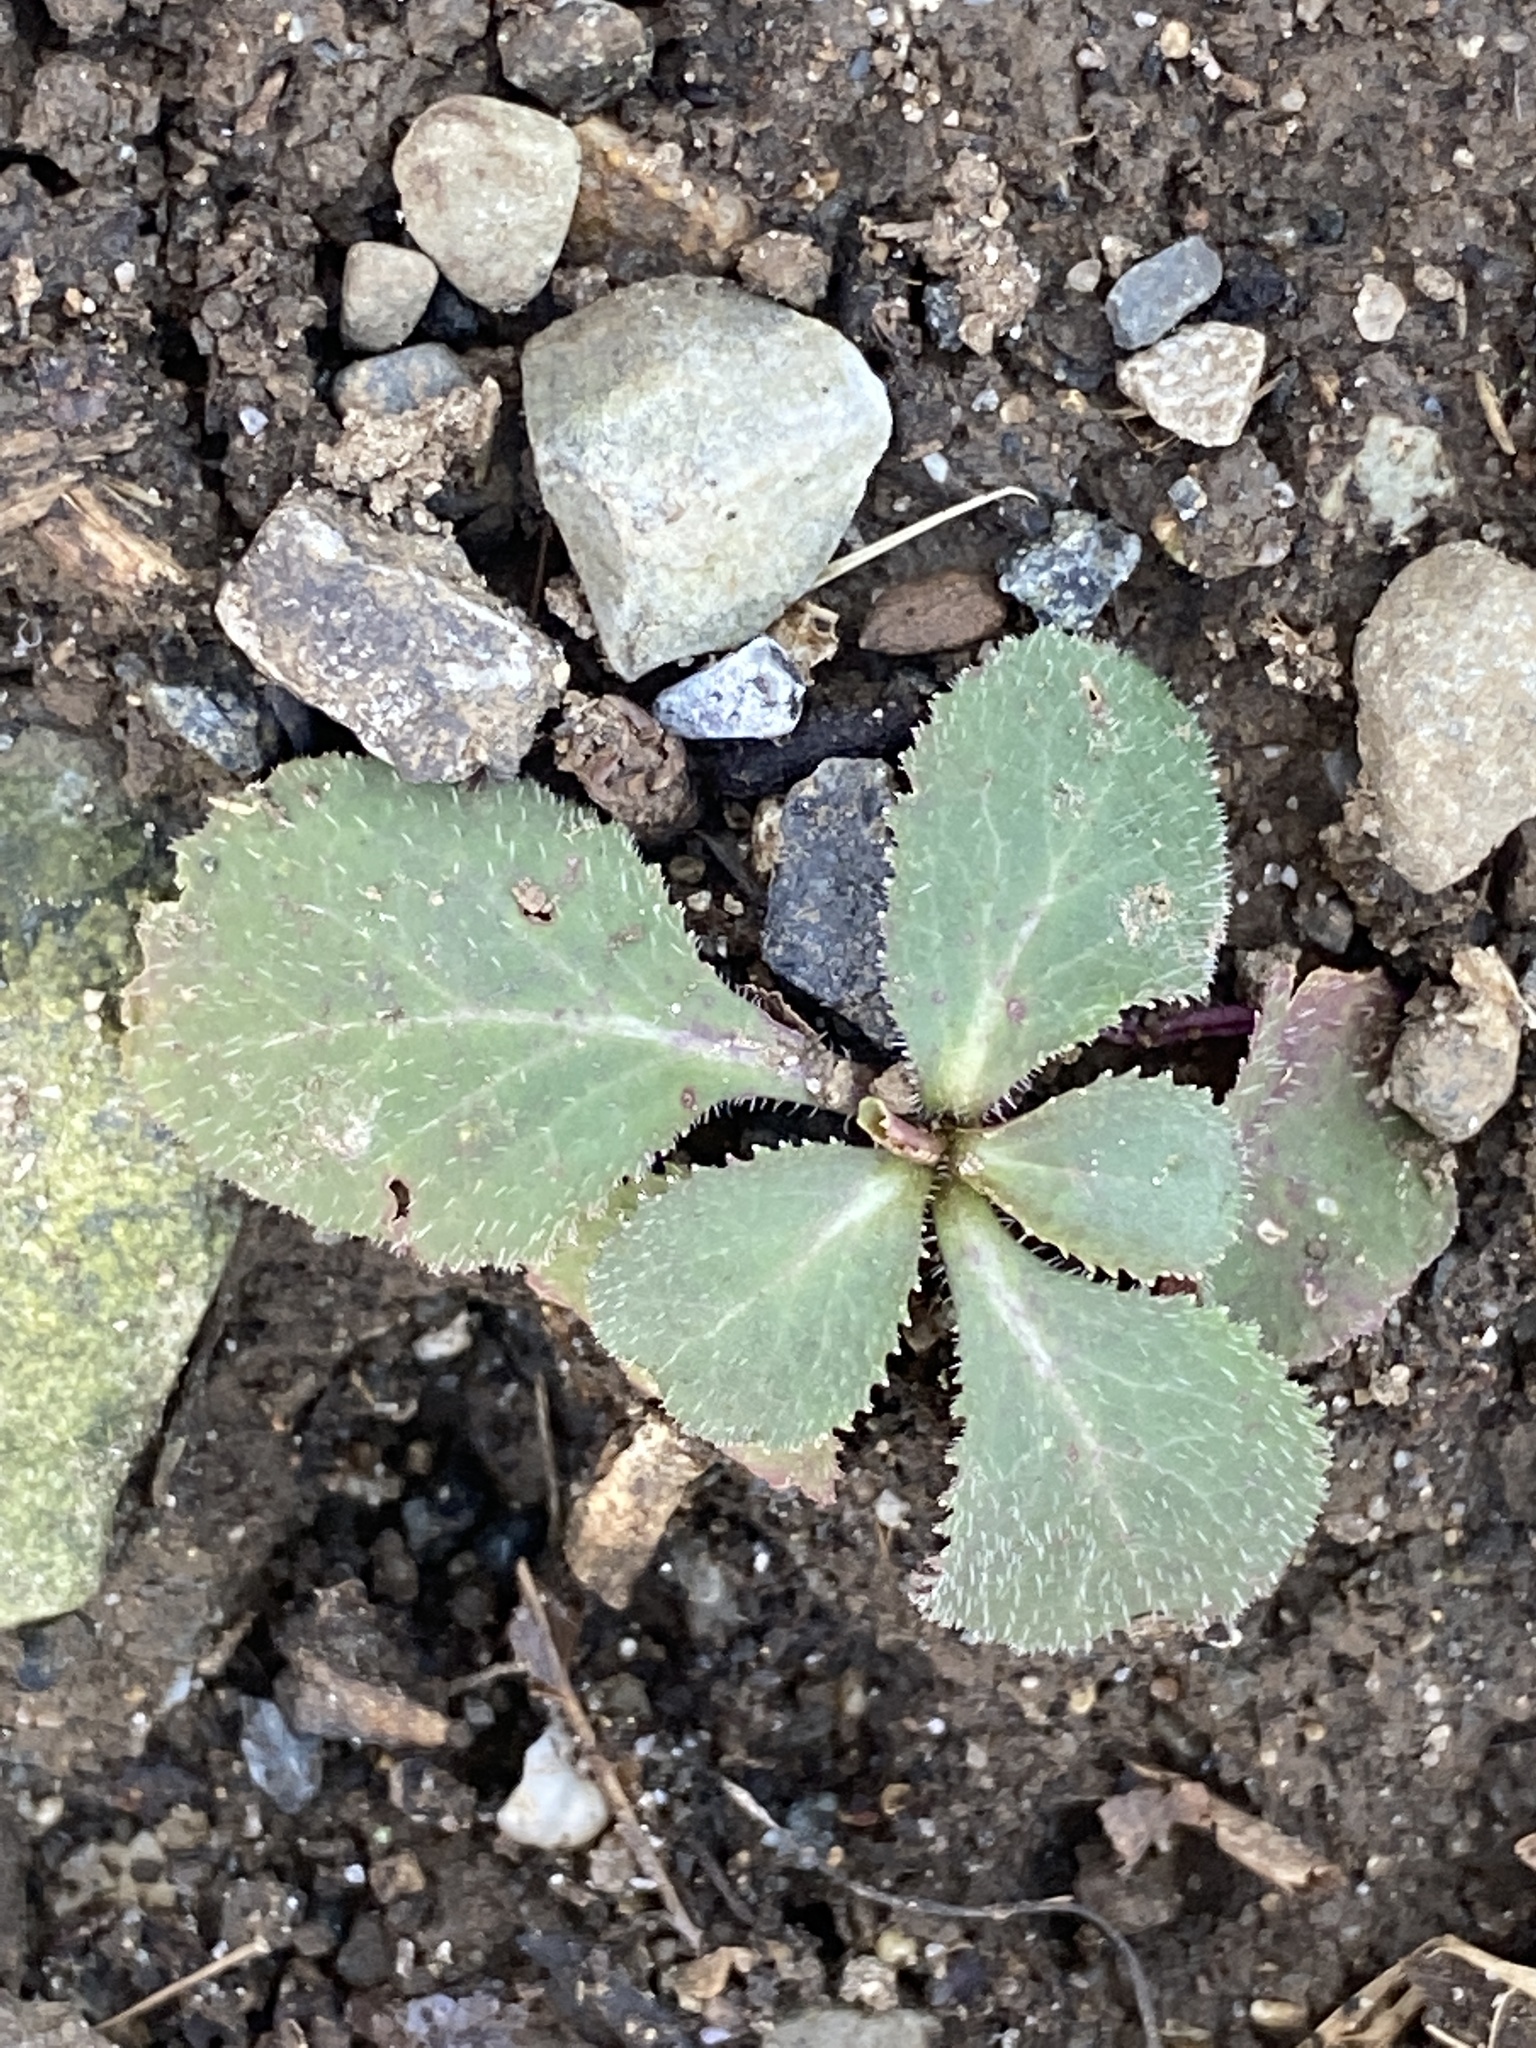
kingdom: Plantae
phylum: Tracheophyta
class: Magnoliopsida
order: Saxifragales
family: Saxifragaceae
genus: Micranthes
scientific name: Micranthes virginiensis
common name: Early saxifrage
